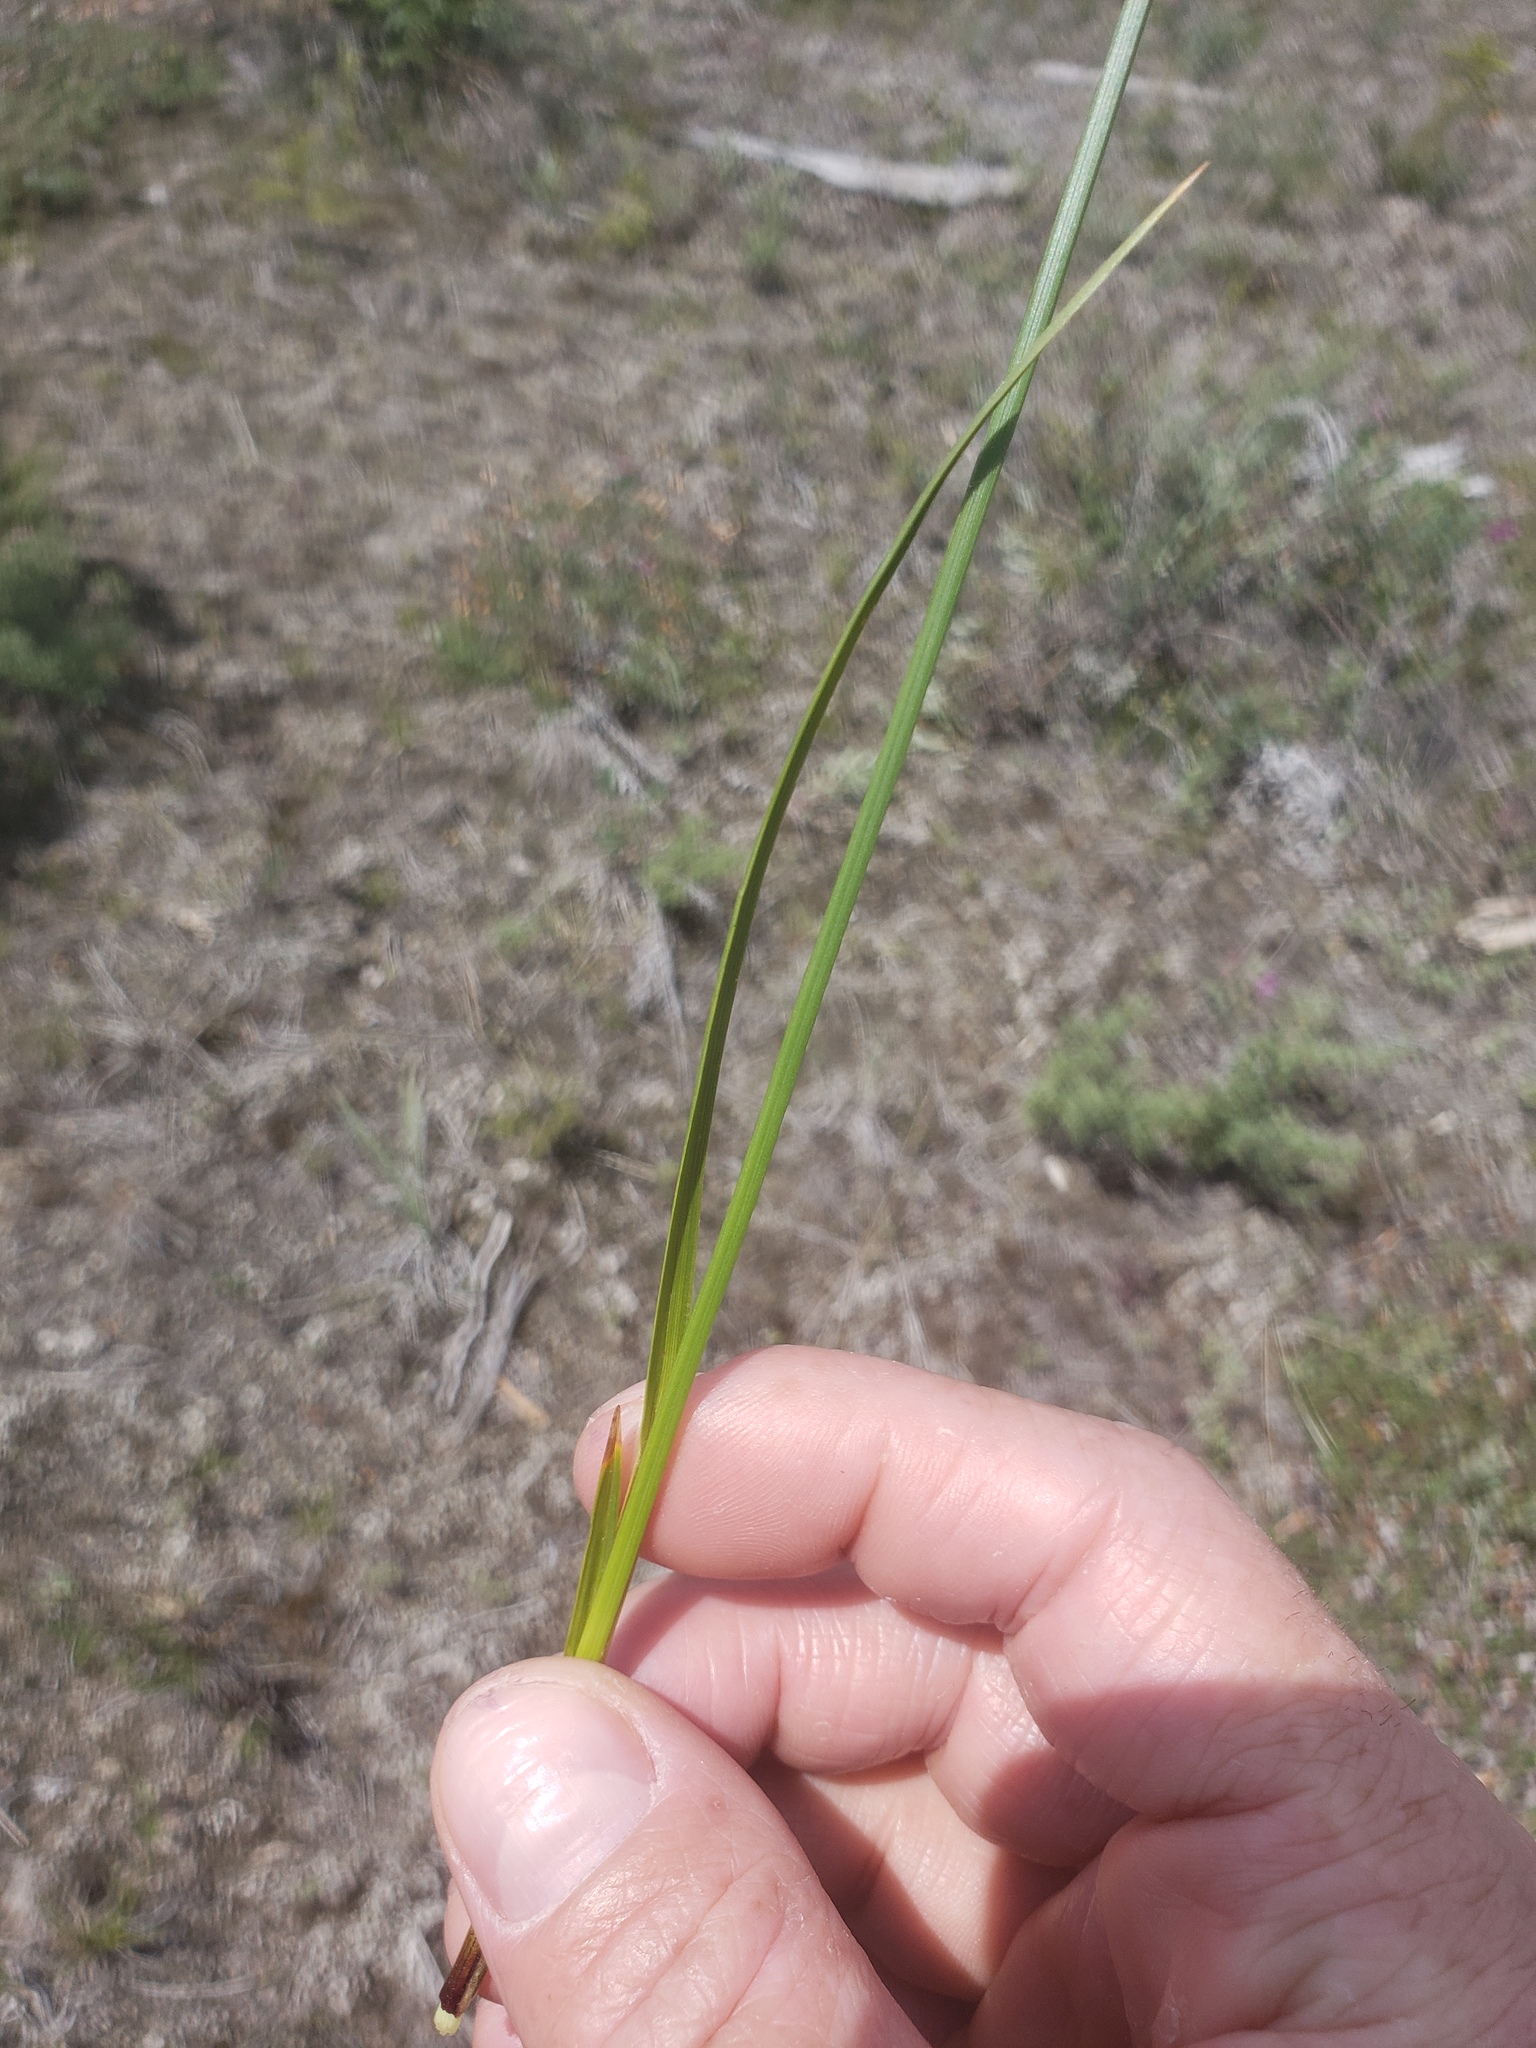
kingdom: Plantae
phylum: Tracheophyta
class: Liliopsida
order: Poales
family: Cyperaceae
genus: Carex
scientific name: Carex scirpoidea
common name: Canada single-spike sedge
